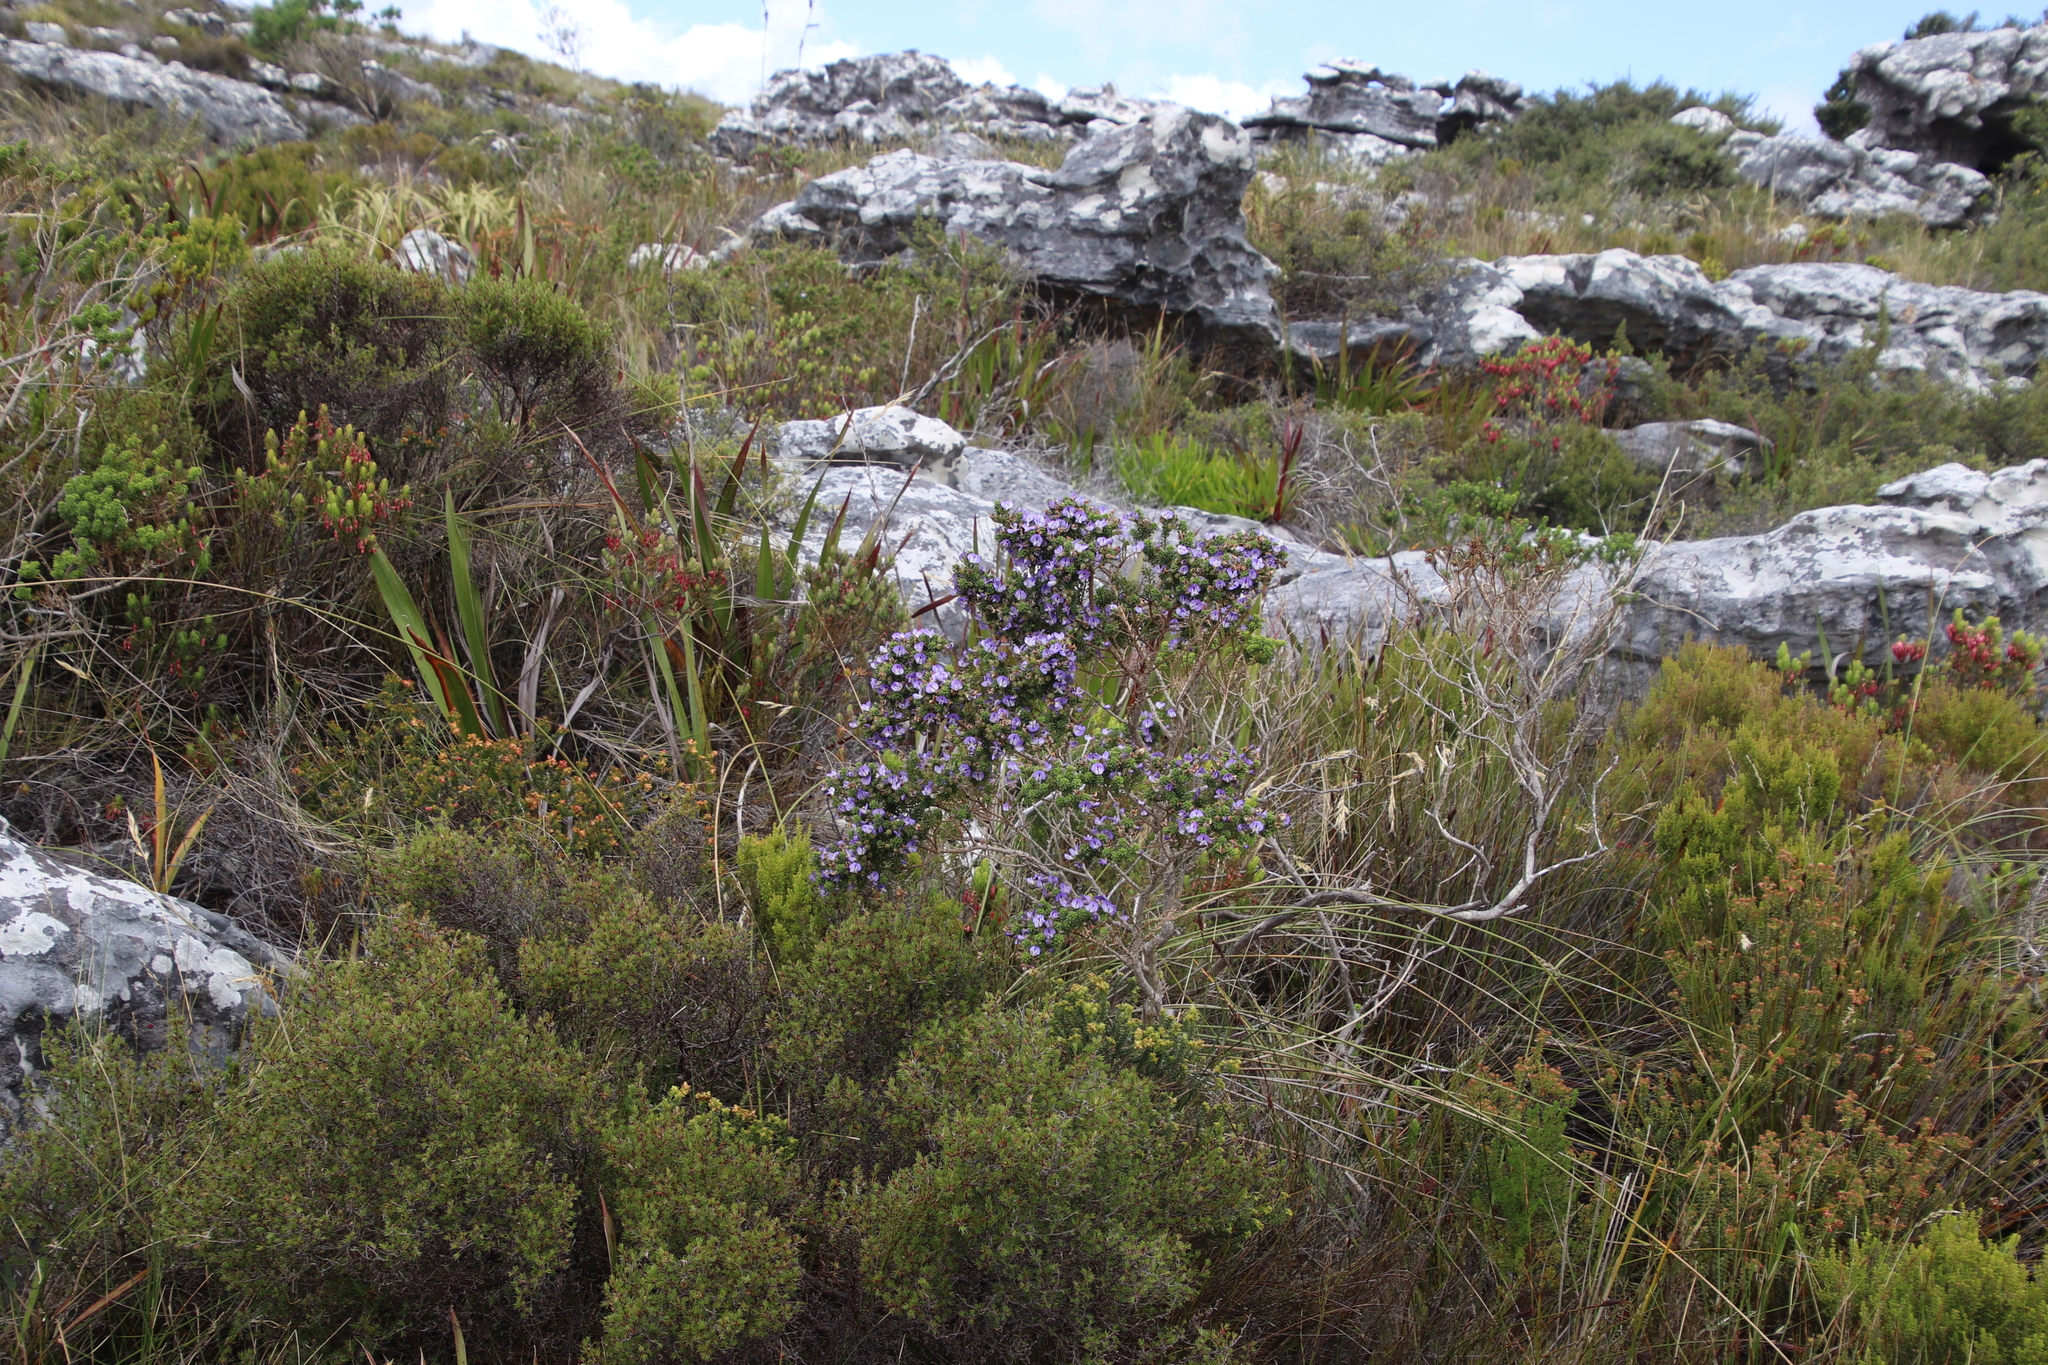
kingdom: Plantae
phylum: Tracheophyta
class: Magnoliopsida
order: Fabales
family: Fabaceae
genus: Psoralea
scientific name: Psoralea aculeata
